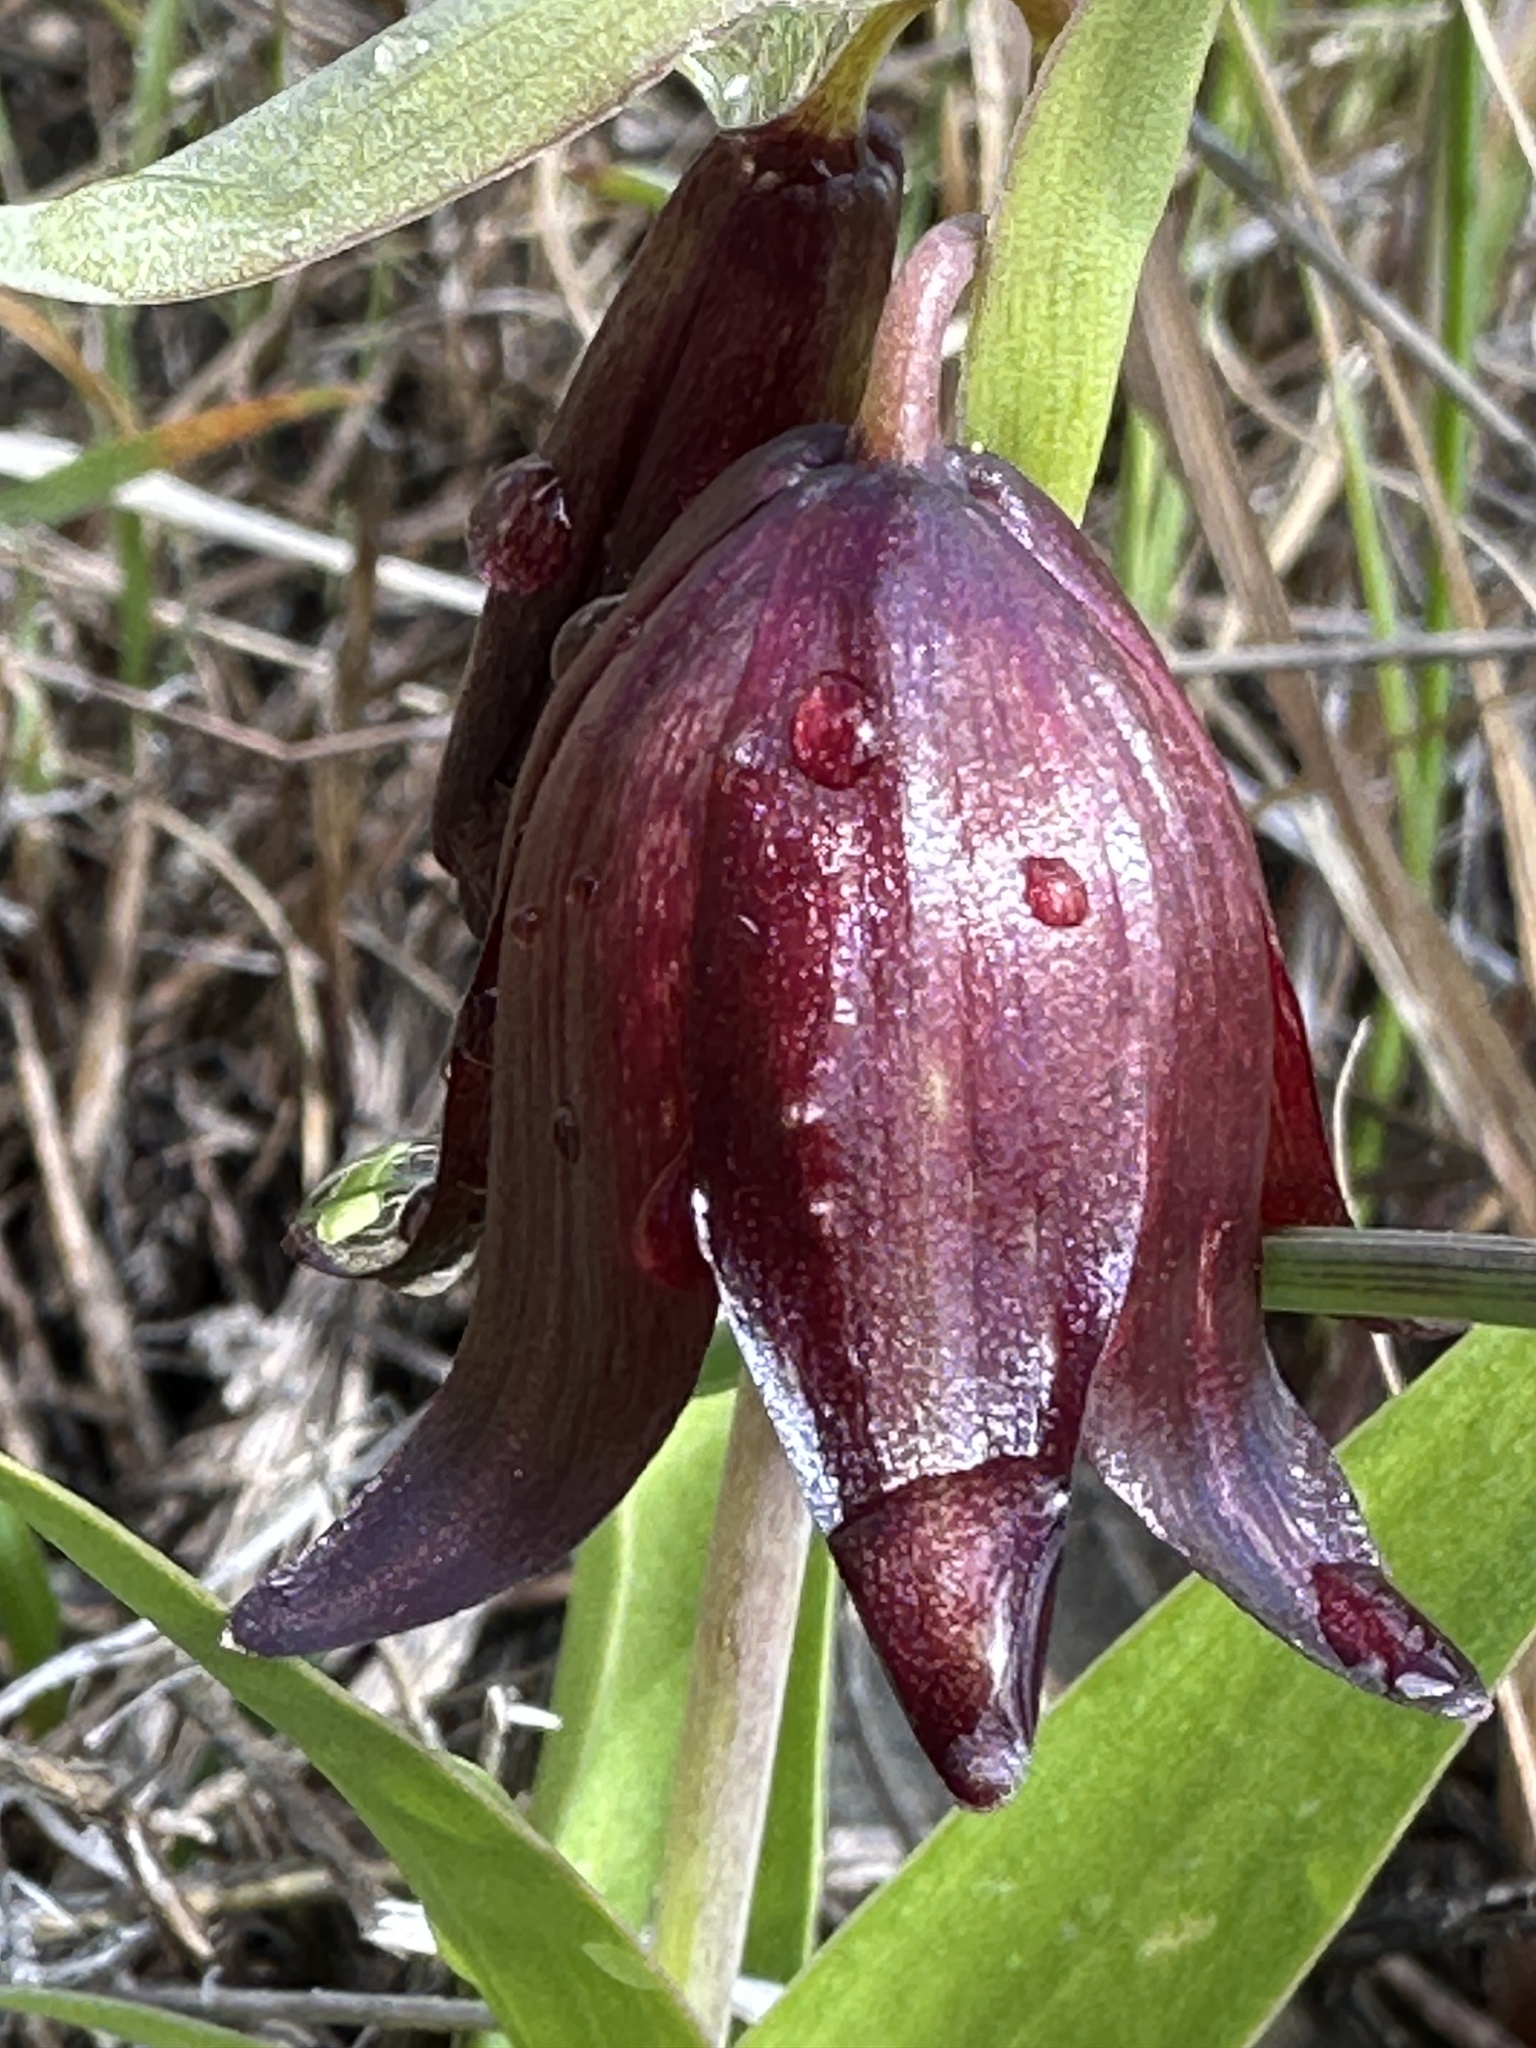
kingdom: Plantae
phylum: Tracheophyta
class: Liliopsida
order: Liliales
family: Liliaceae
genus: Fritillaria
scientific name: Fritillaria biflora
